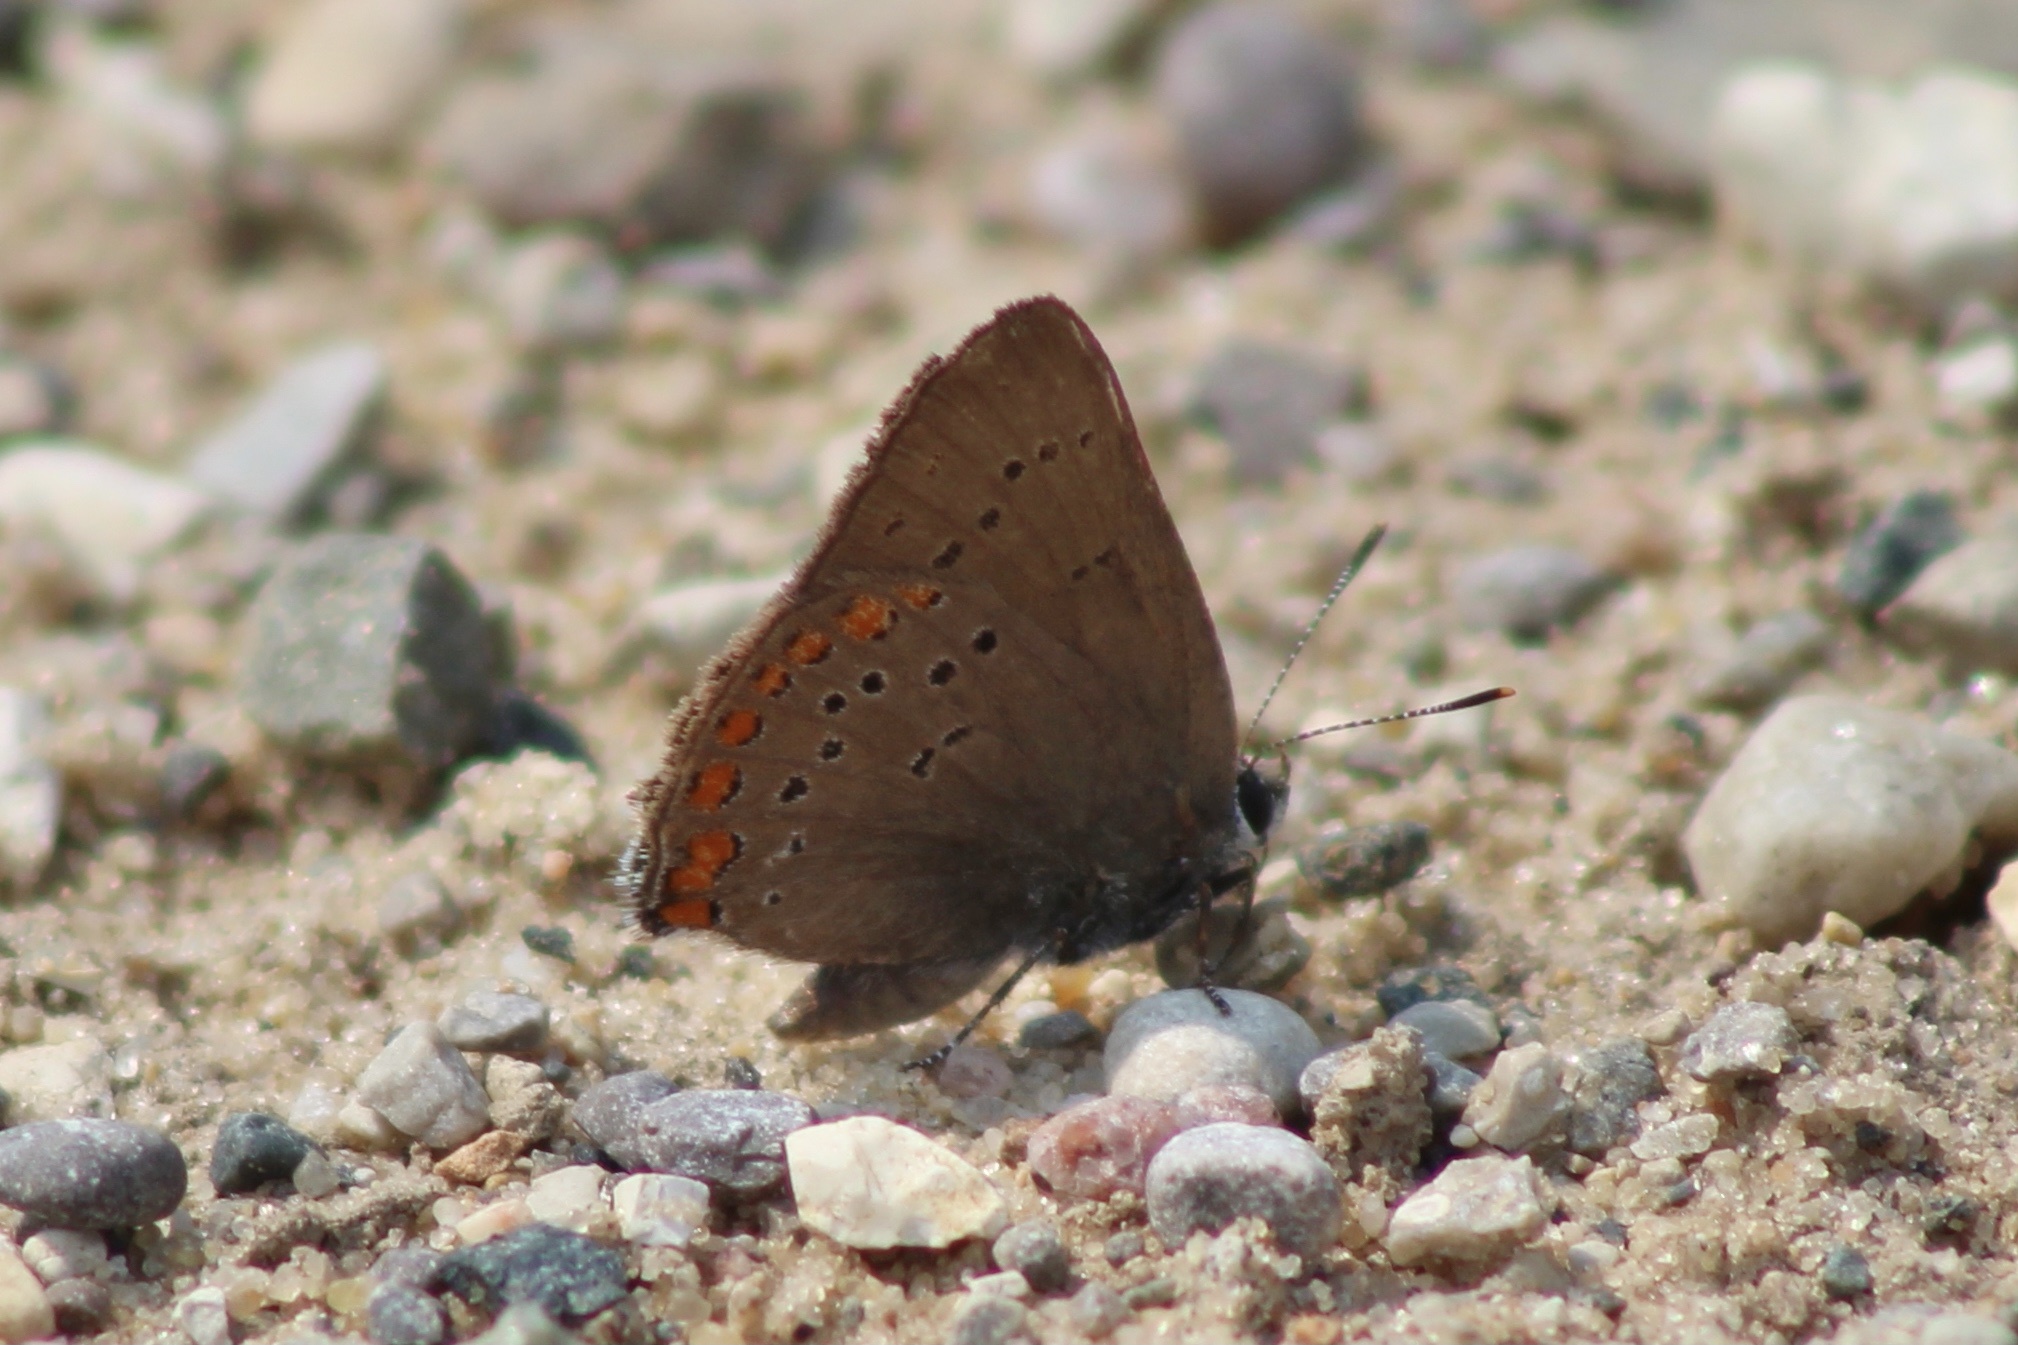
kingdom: Animalia
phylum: Arthropoda
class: Insecta
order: Lepidoptera
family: Lycaenidae
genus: Harkenclenus
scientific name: Harkenclenus titus
